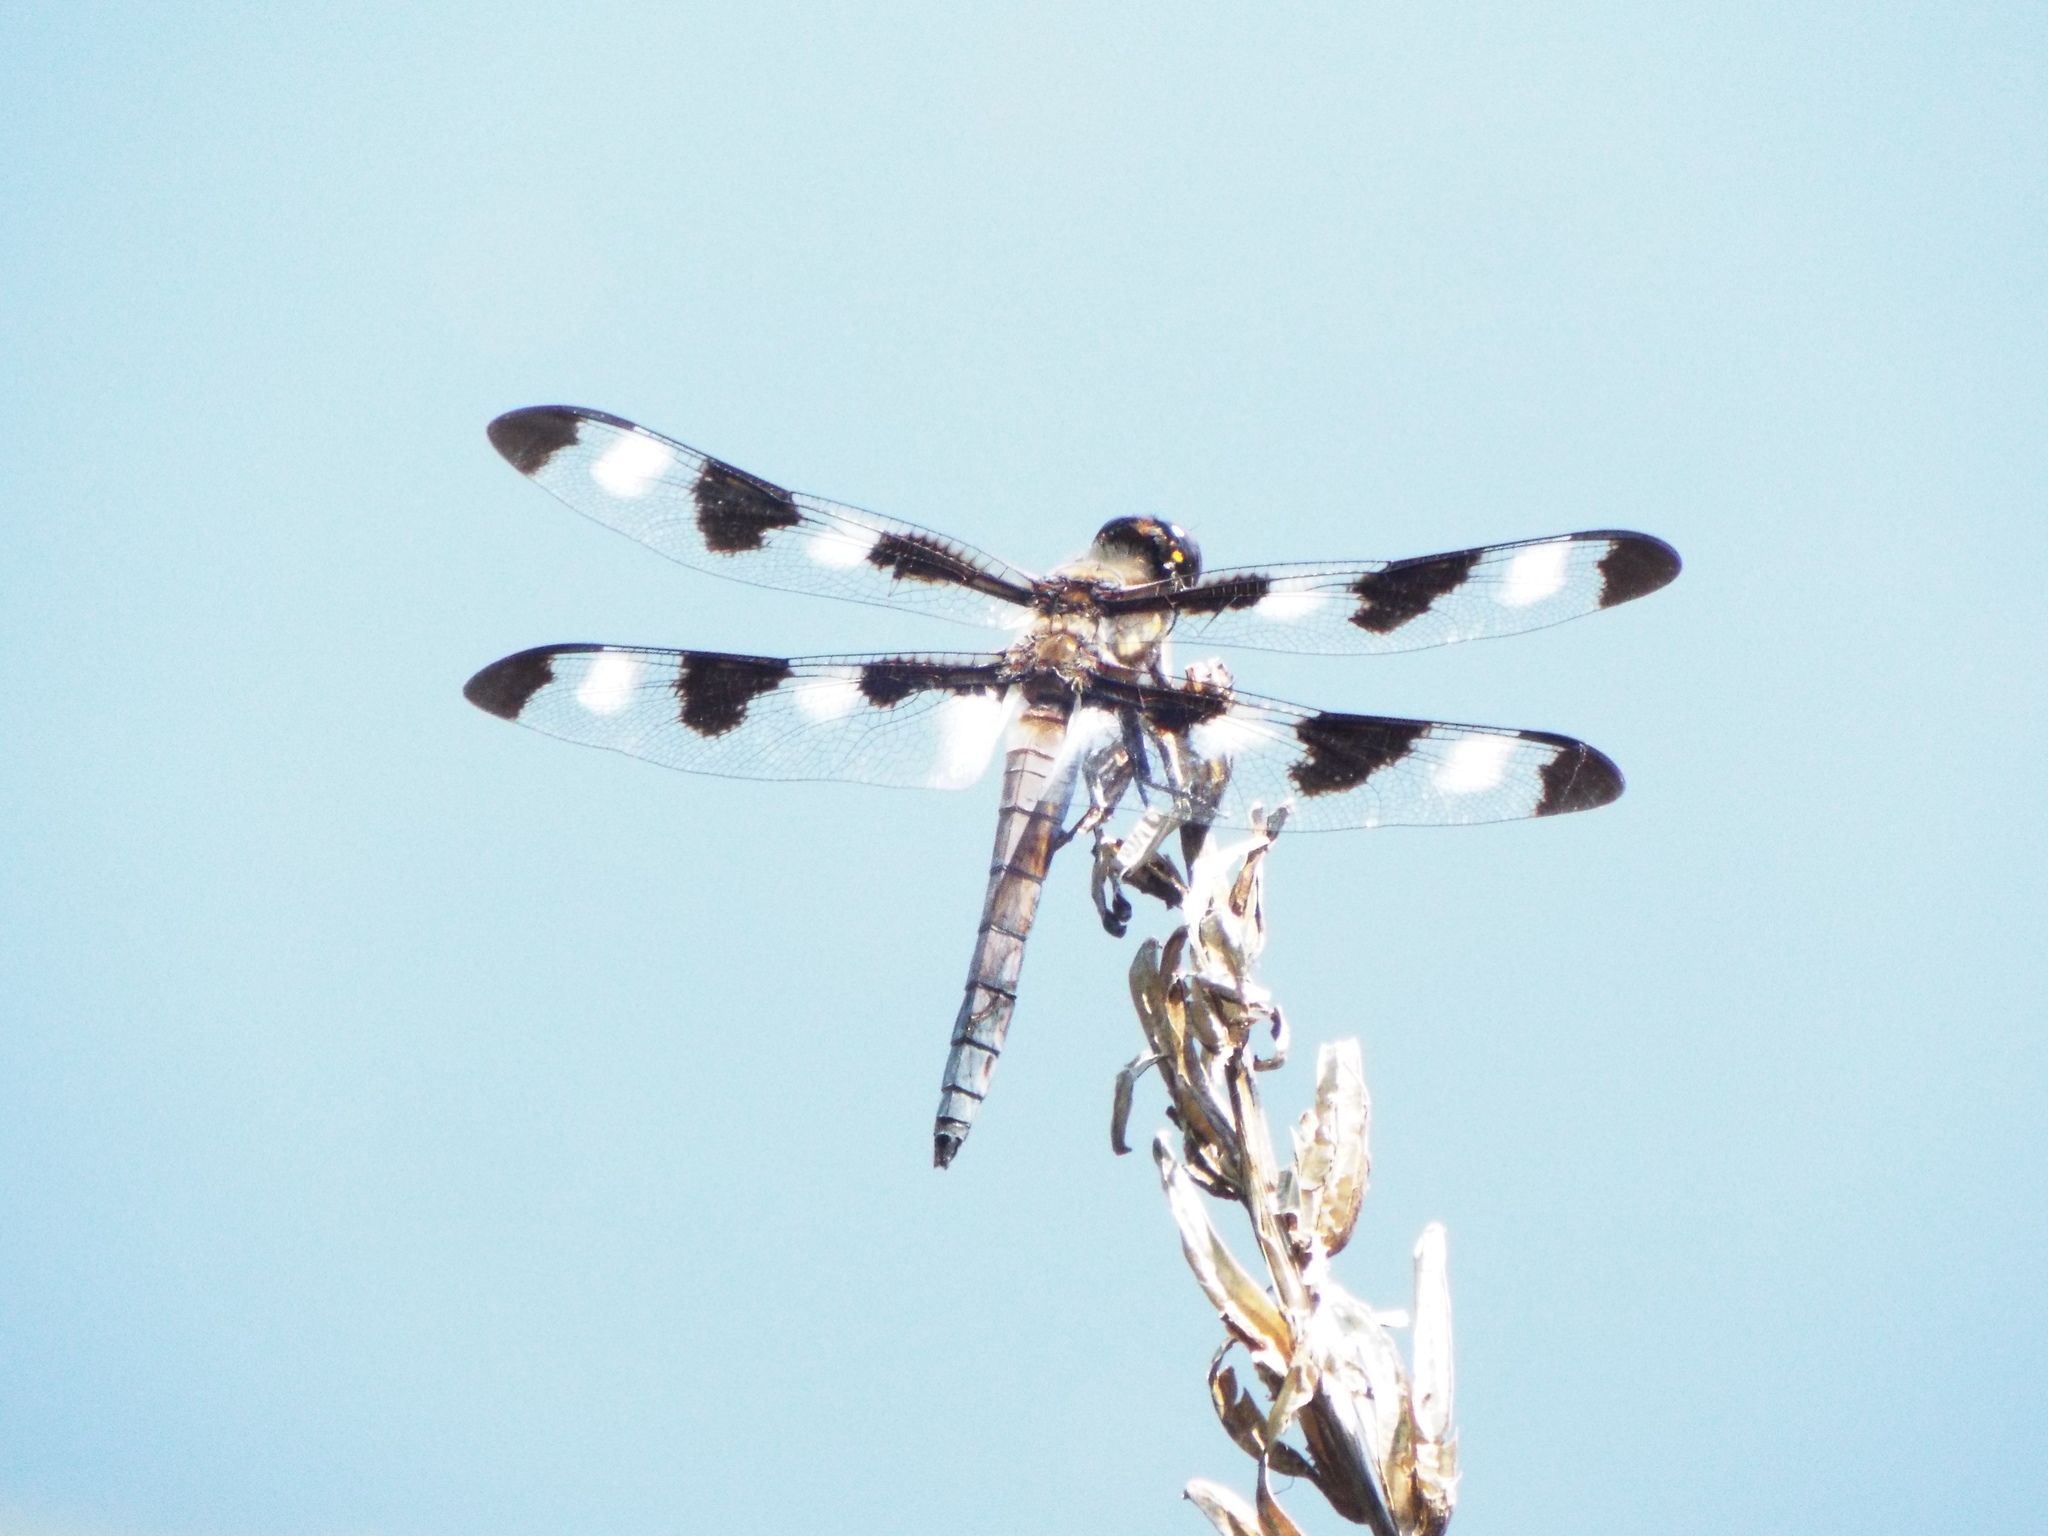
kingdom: Animalia
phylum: Arthropoda
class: Insecta
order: Odonata
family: Libellulidae
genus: Libellula
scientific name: Libellula pulchella
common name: Twelve-spotted skimmer
